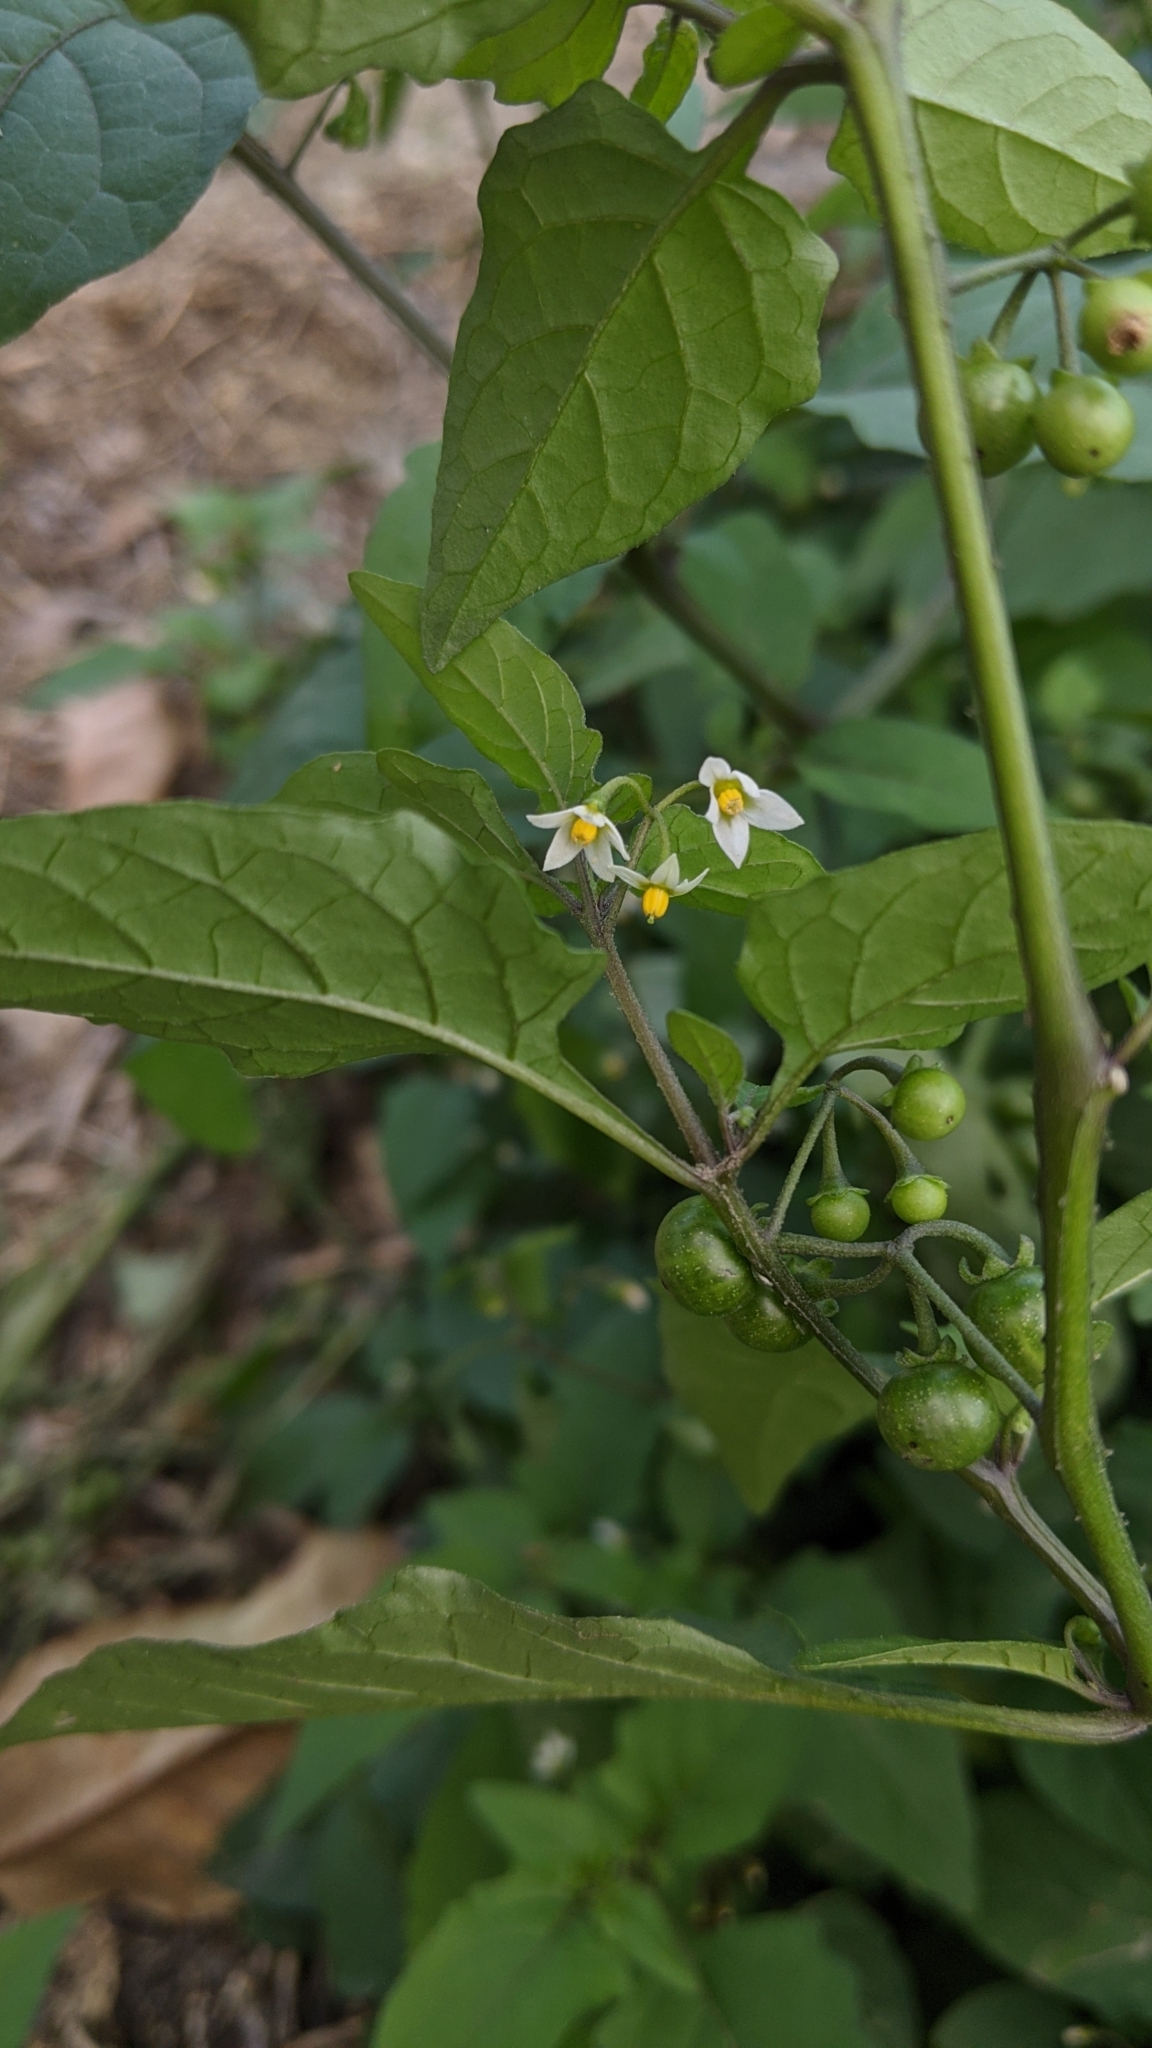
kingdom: Plantae
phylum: Tracheophyta
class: Magnoliopsida
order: Solanales
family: Solanaceae
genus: Solanum
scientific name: Solanum americanum
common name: American black nightshade
